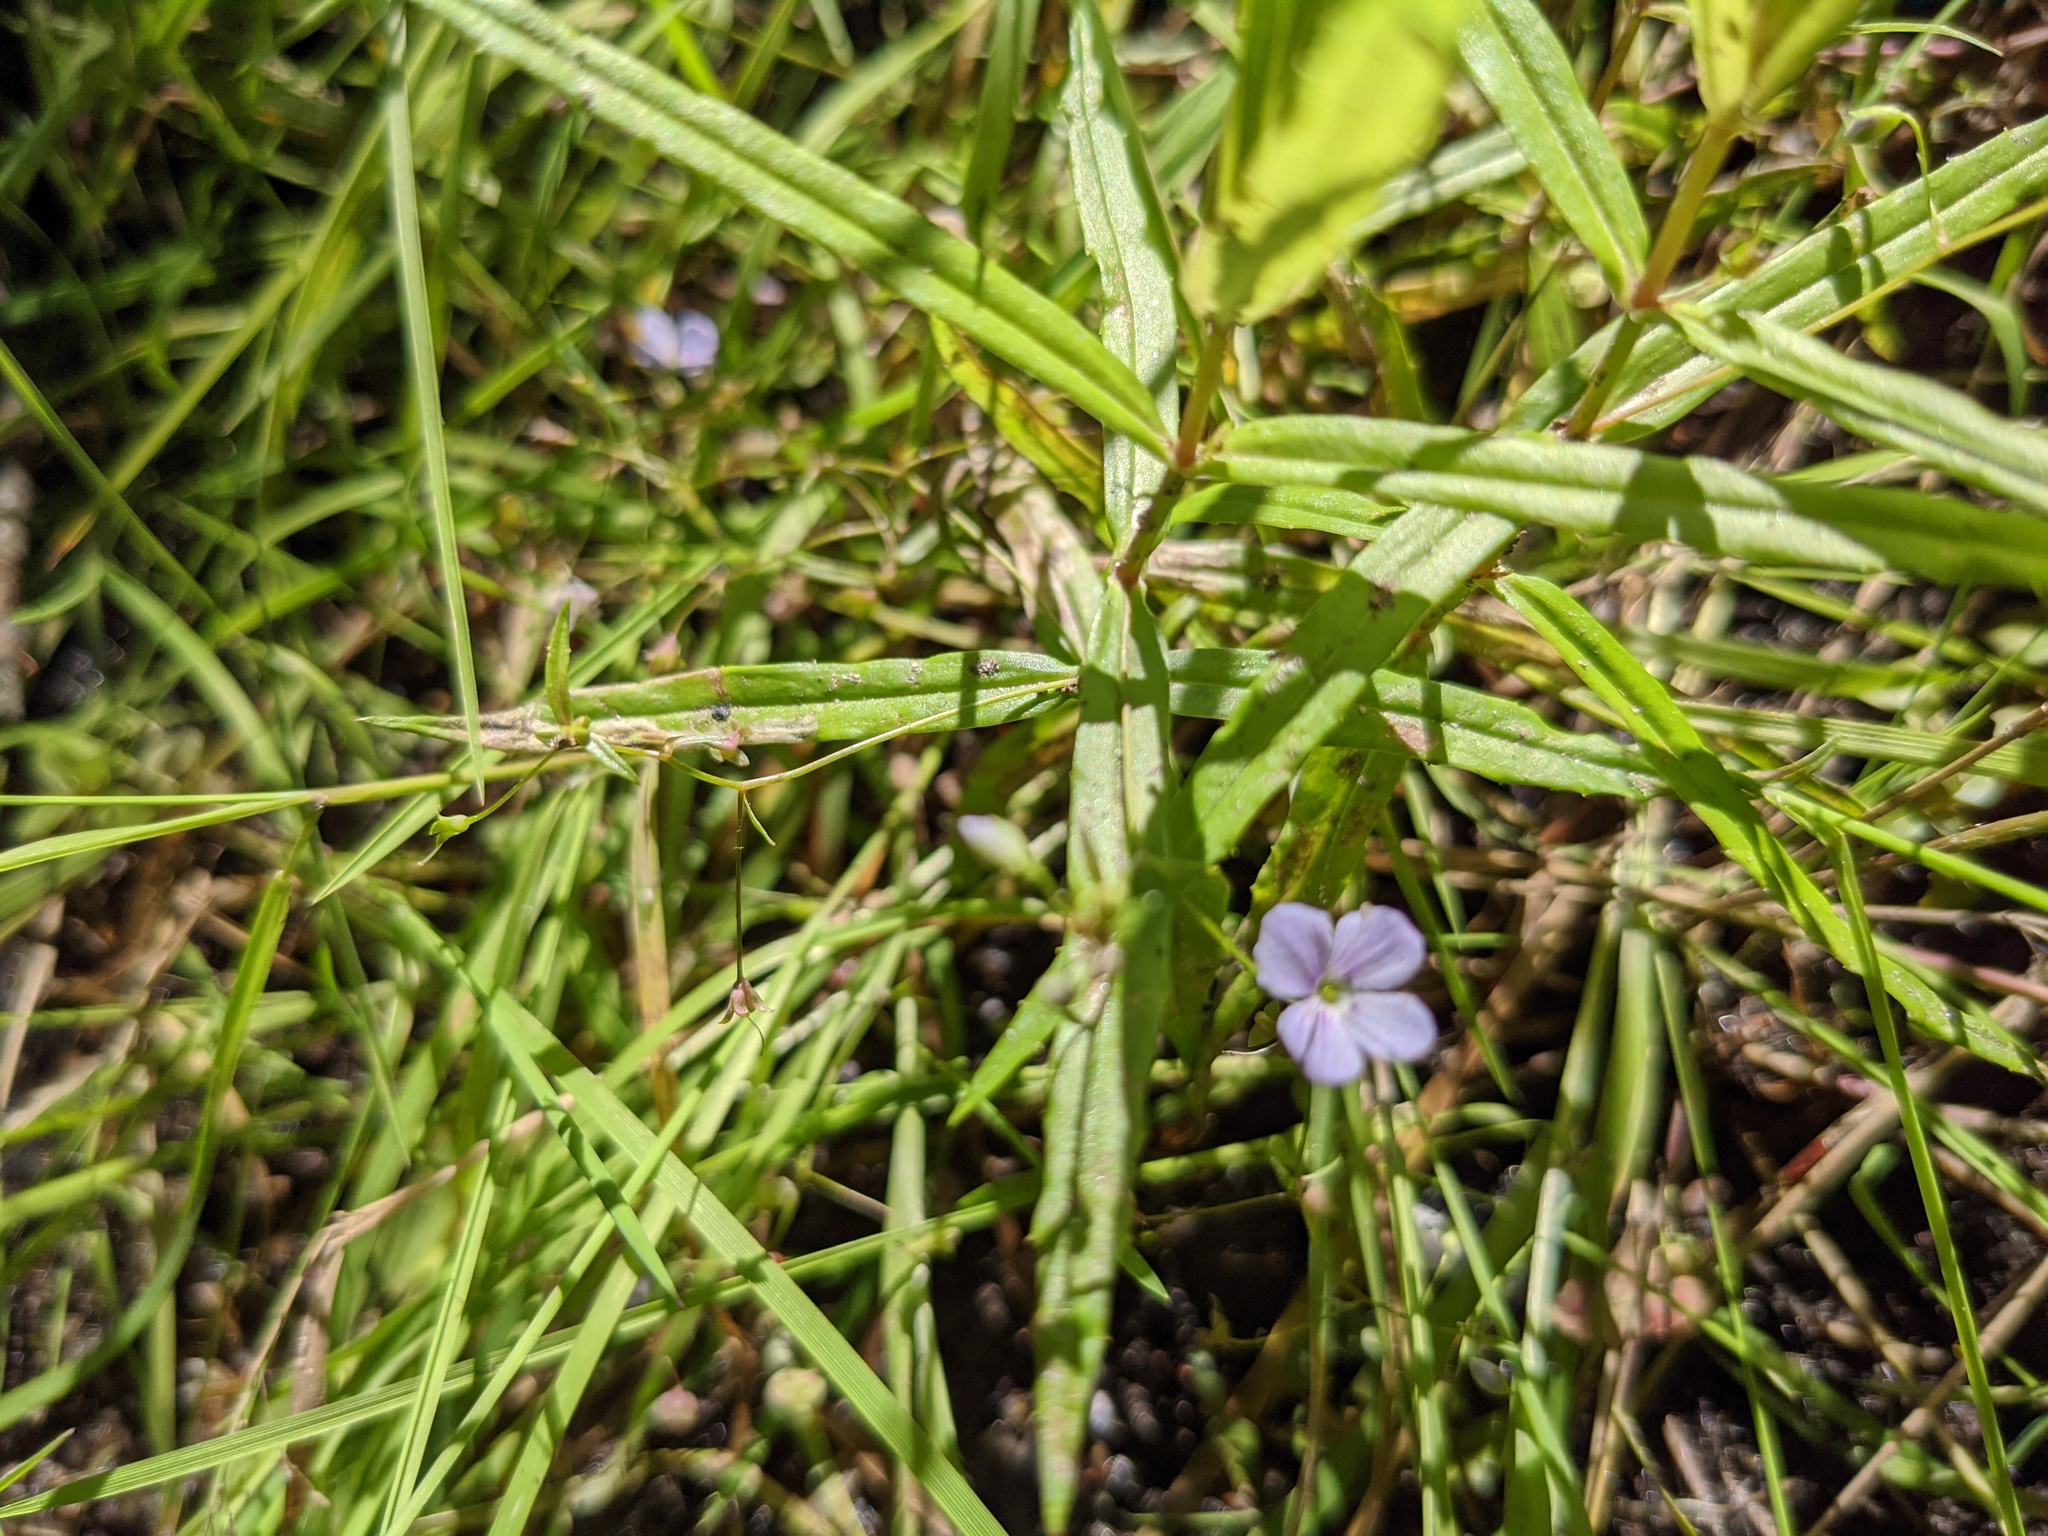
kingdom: Plantae
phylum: Tracheophyta
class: Magnoliopsida
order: Lamiales
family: Plantaginaceae
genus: Veronica
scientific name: Veronica scutellata
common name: Marsh speedwell
